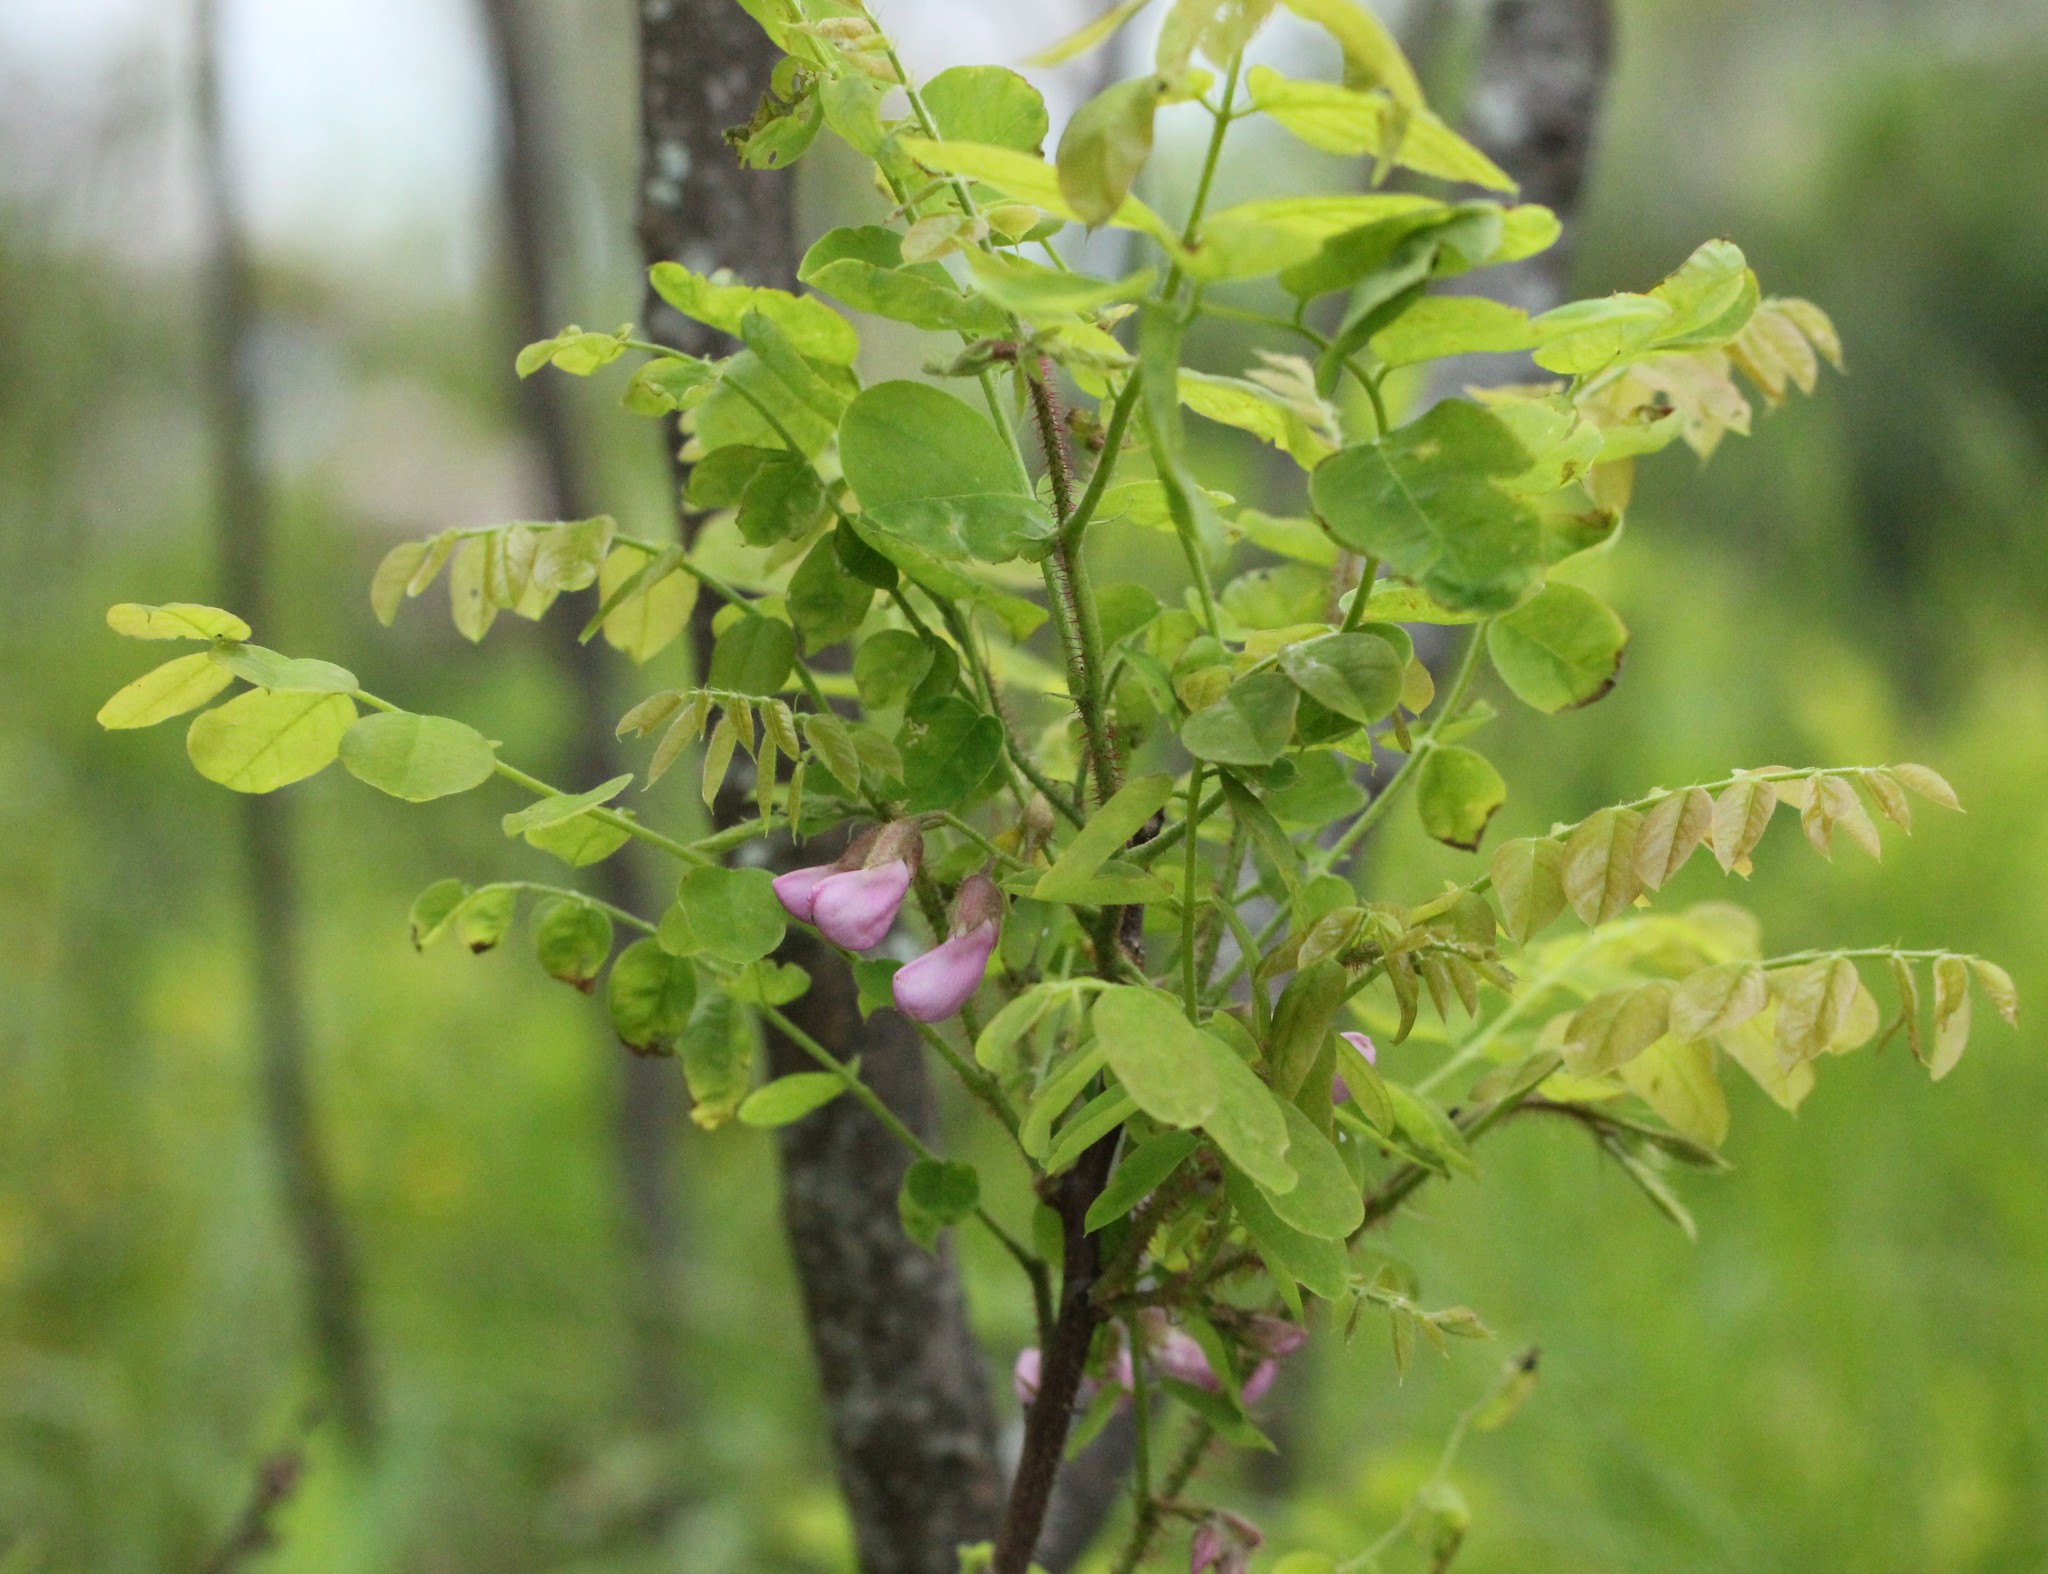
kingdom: Plantae
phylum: Tracheophyta
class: Magnoliopsida
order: Fabales
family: Fabaceae
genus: Robinia
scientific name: Robinia hispida
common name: Bristly locust
